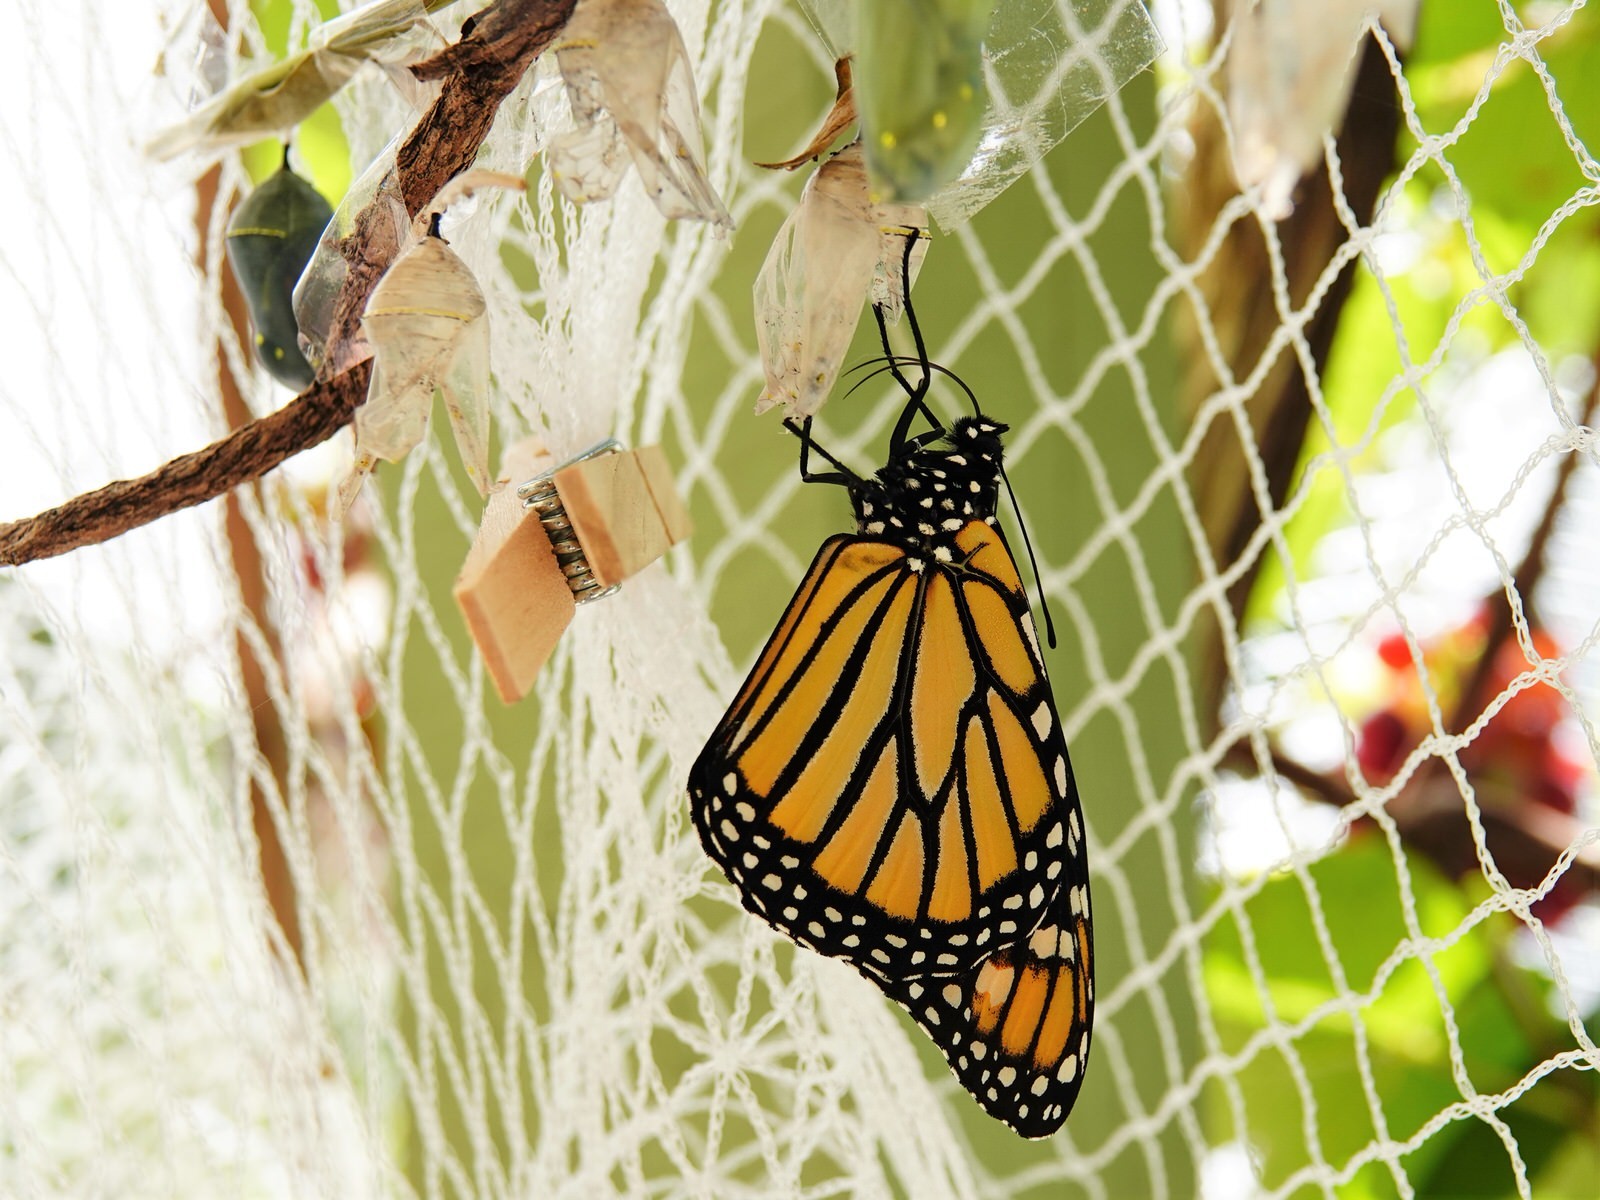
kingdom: Animalia
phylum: Arthropoda
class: Insecta
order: Lepidoptera
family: Nymphalidae
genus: Danaus
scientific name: Danaus plexippus
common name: Monarch
